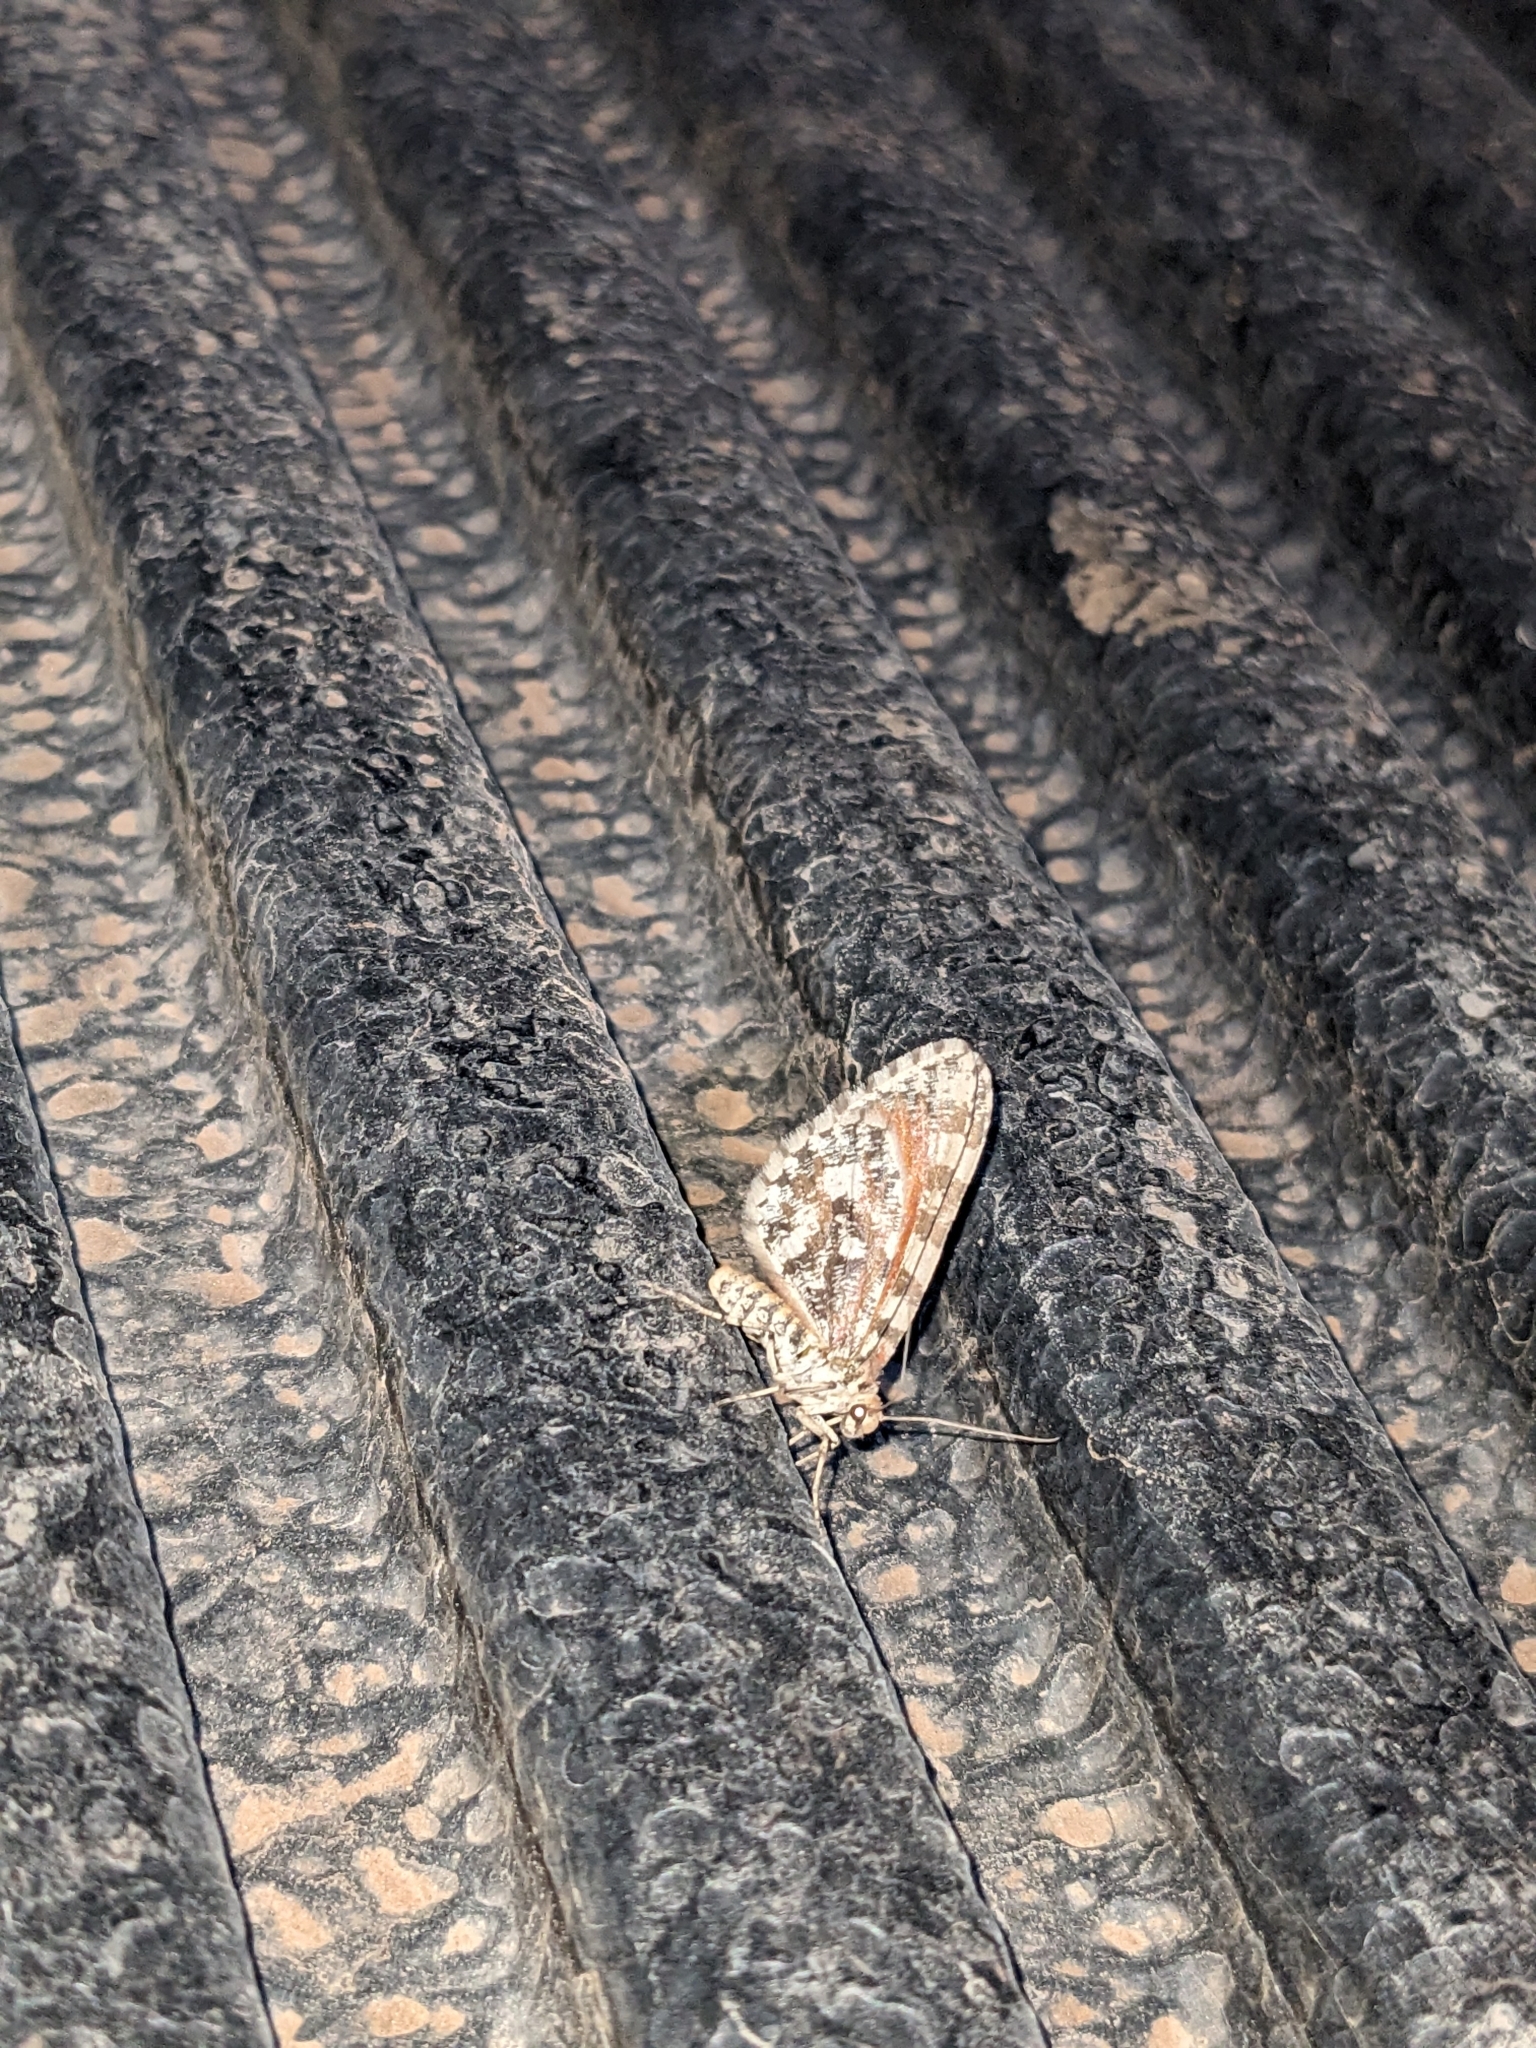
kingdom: Animalia
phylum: Arthropoda
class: Insecta
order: Lepidoptera
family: Geometridae
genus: Stamnodes
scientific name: Stamnodes tessellata
